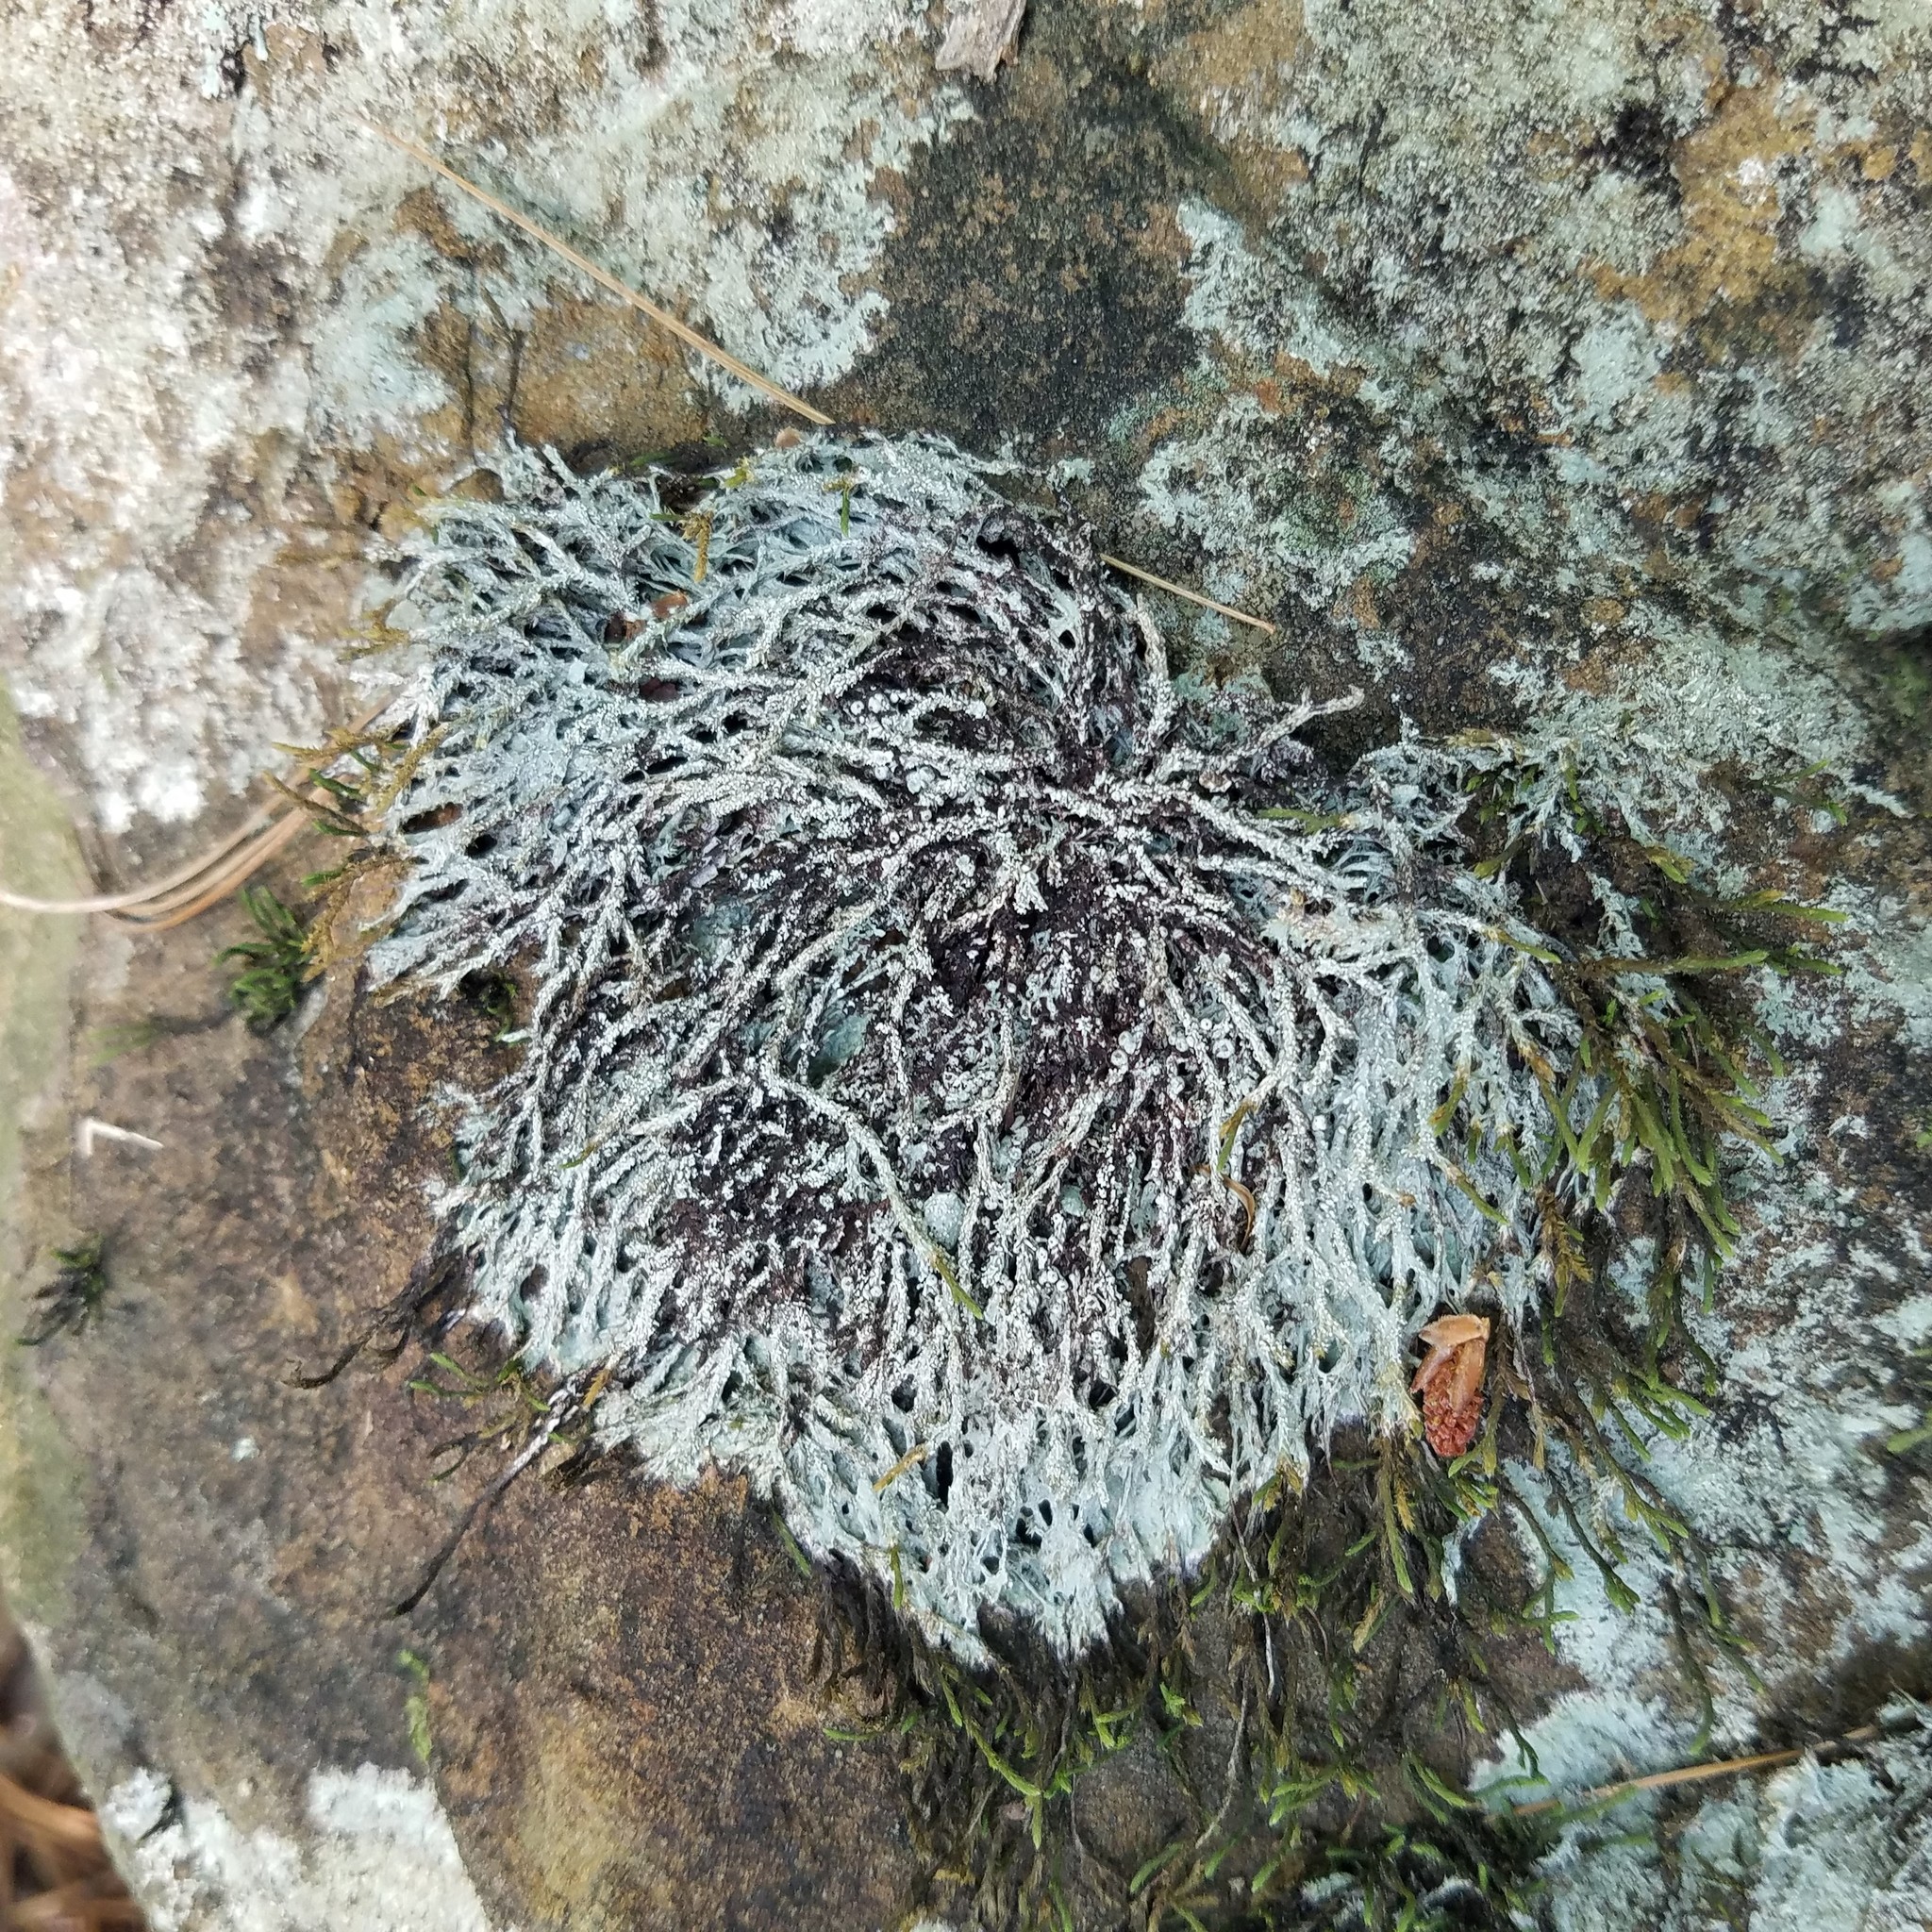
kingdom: Fungi
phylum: Ascomycota
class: Lecanoromycetes
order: Pertusariales
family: Pertusariaceae
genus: Pertusaria
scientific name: Pertusaria globularis
